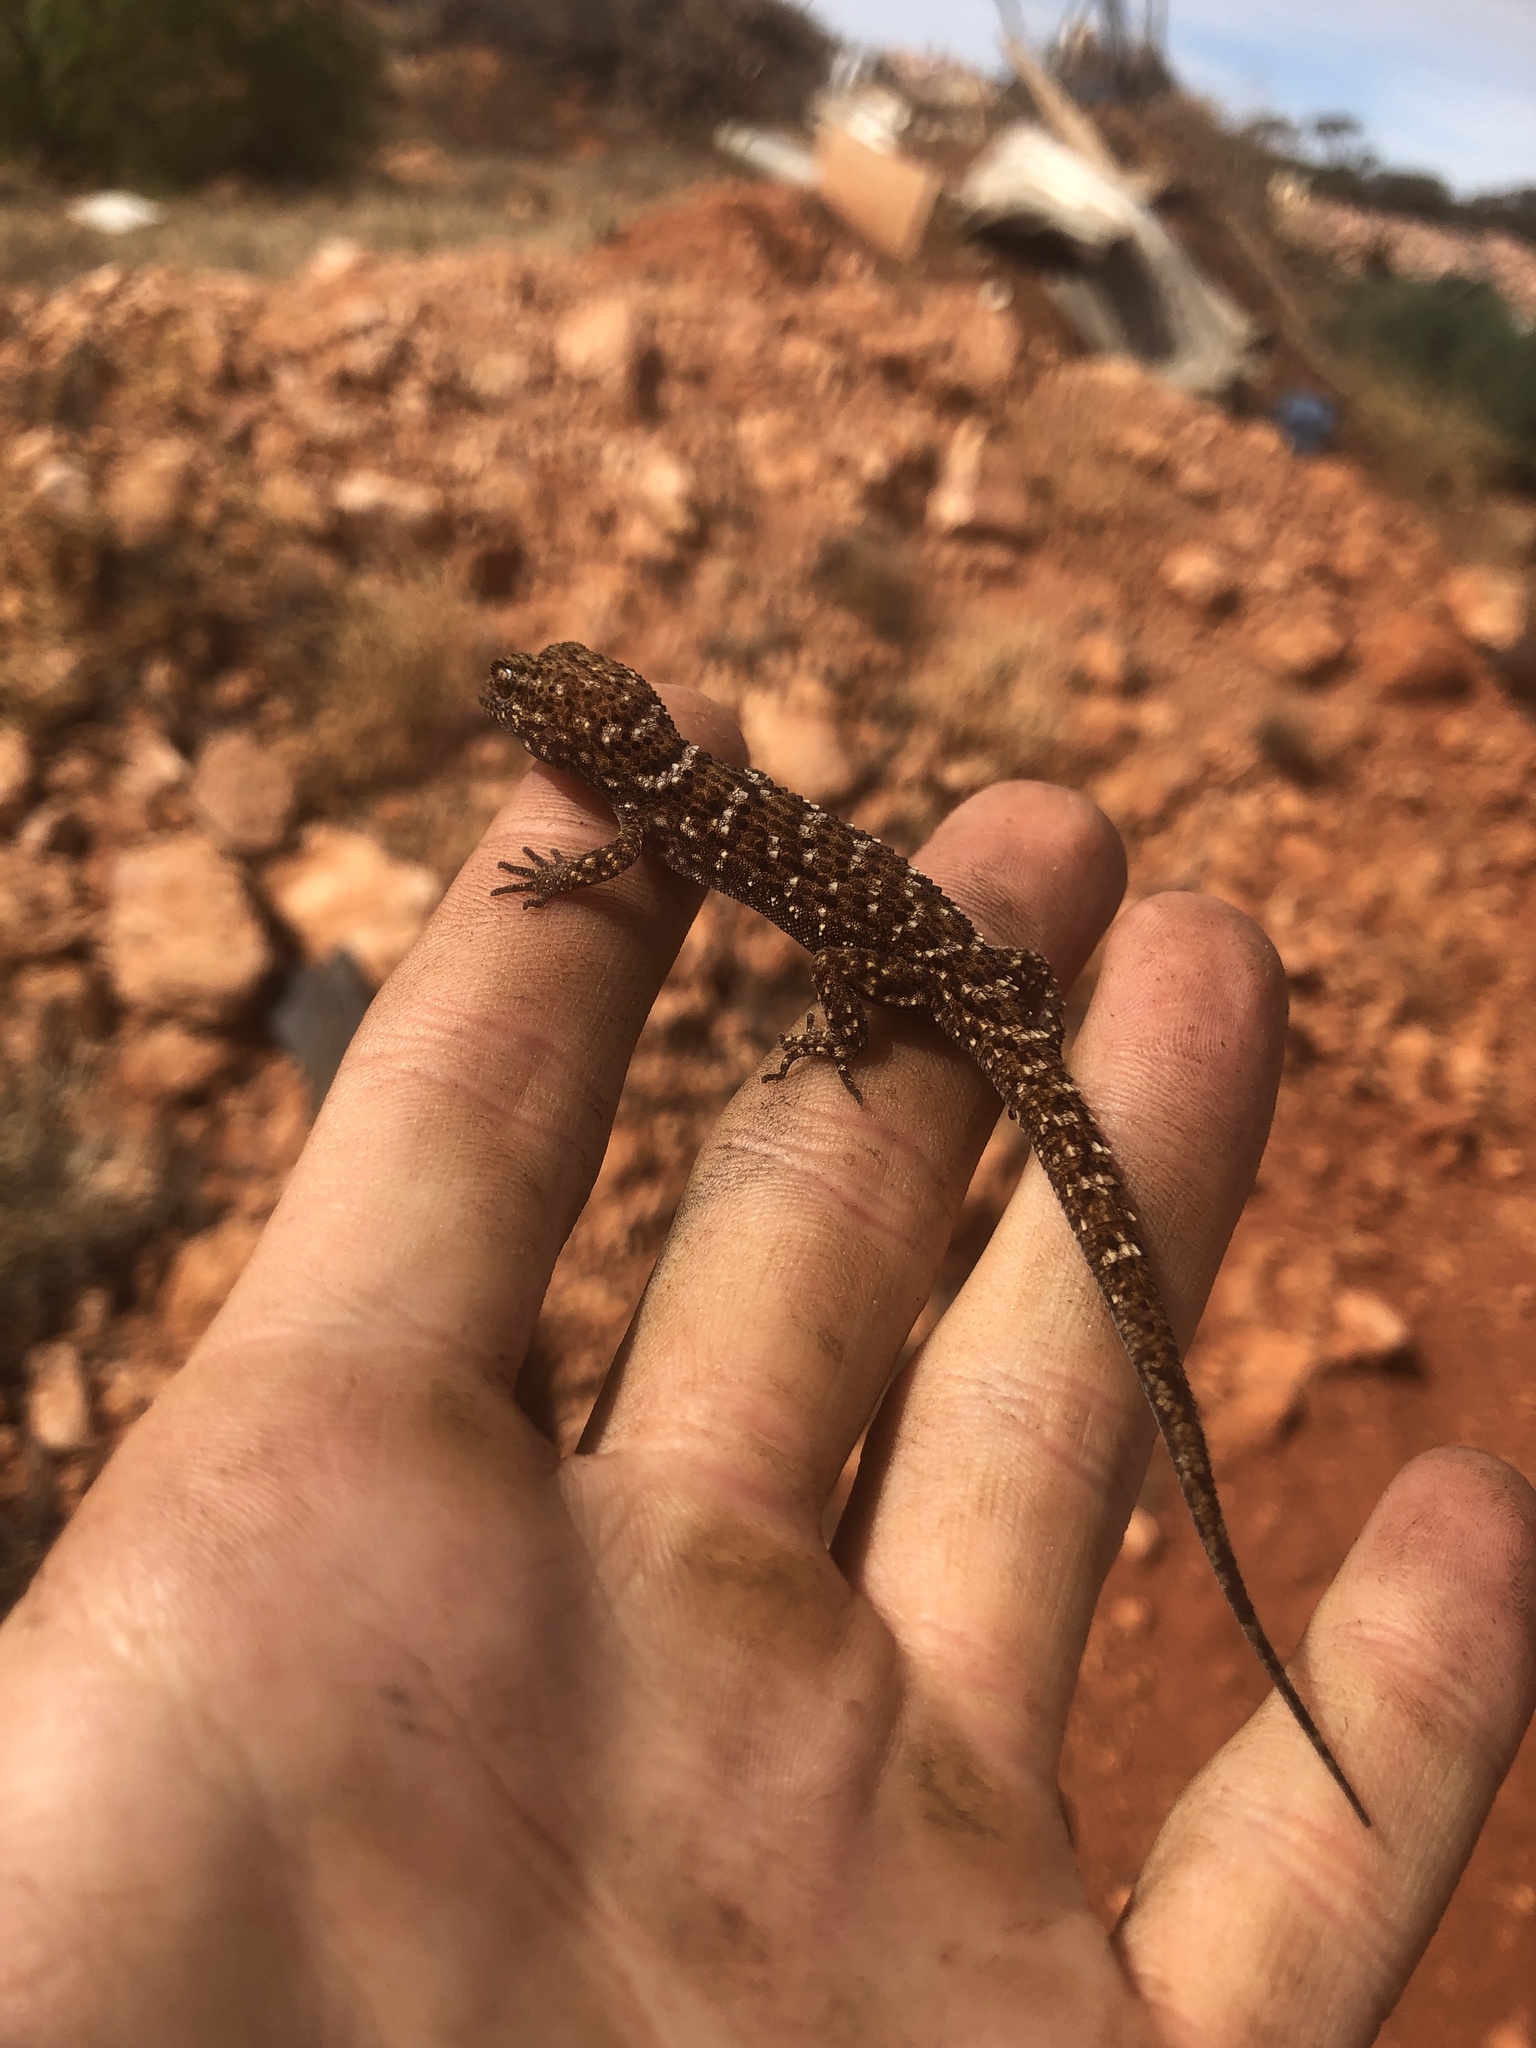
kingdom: Animalia
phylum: Chordata
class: Squamata
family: Gekkonidae
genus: Heteronotia
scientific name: Heteronotia binoei
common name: Bynoe's gecko
